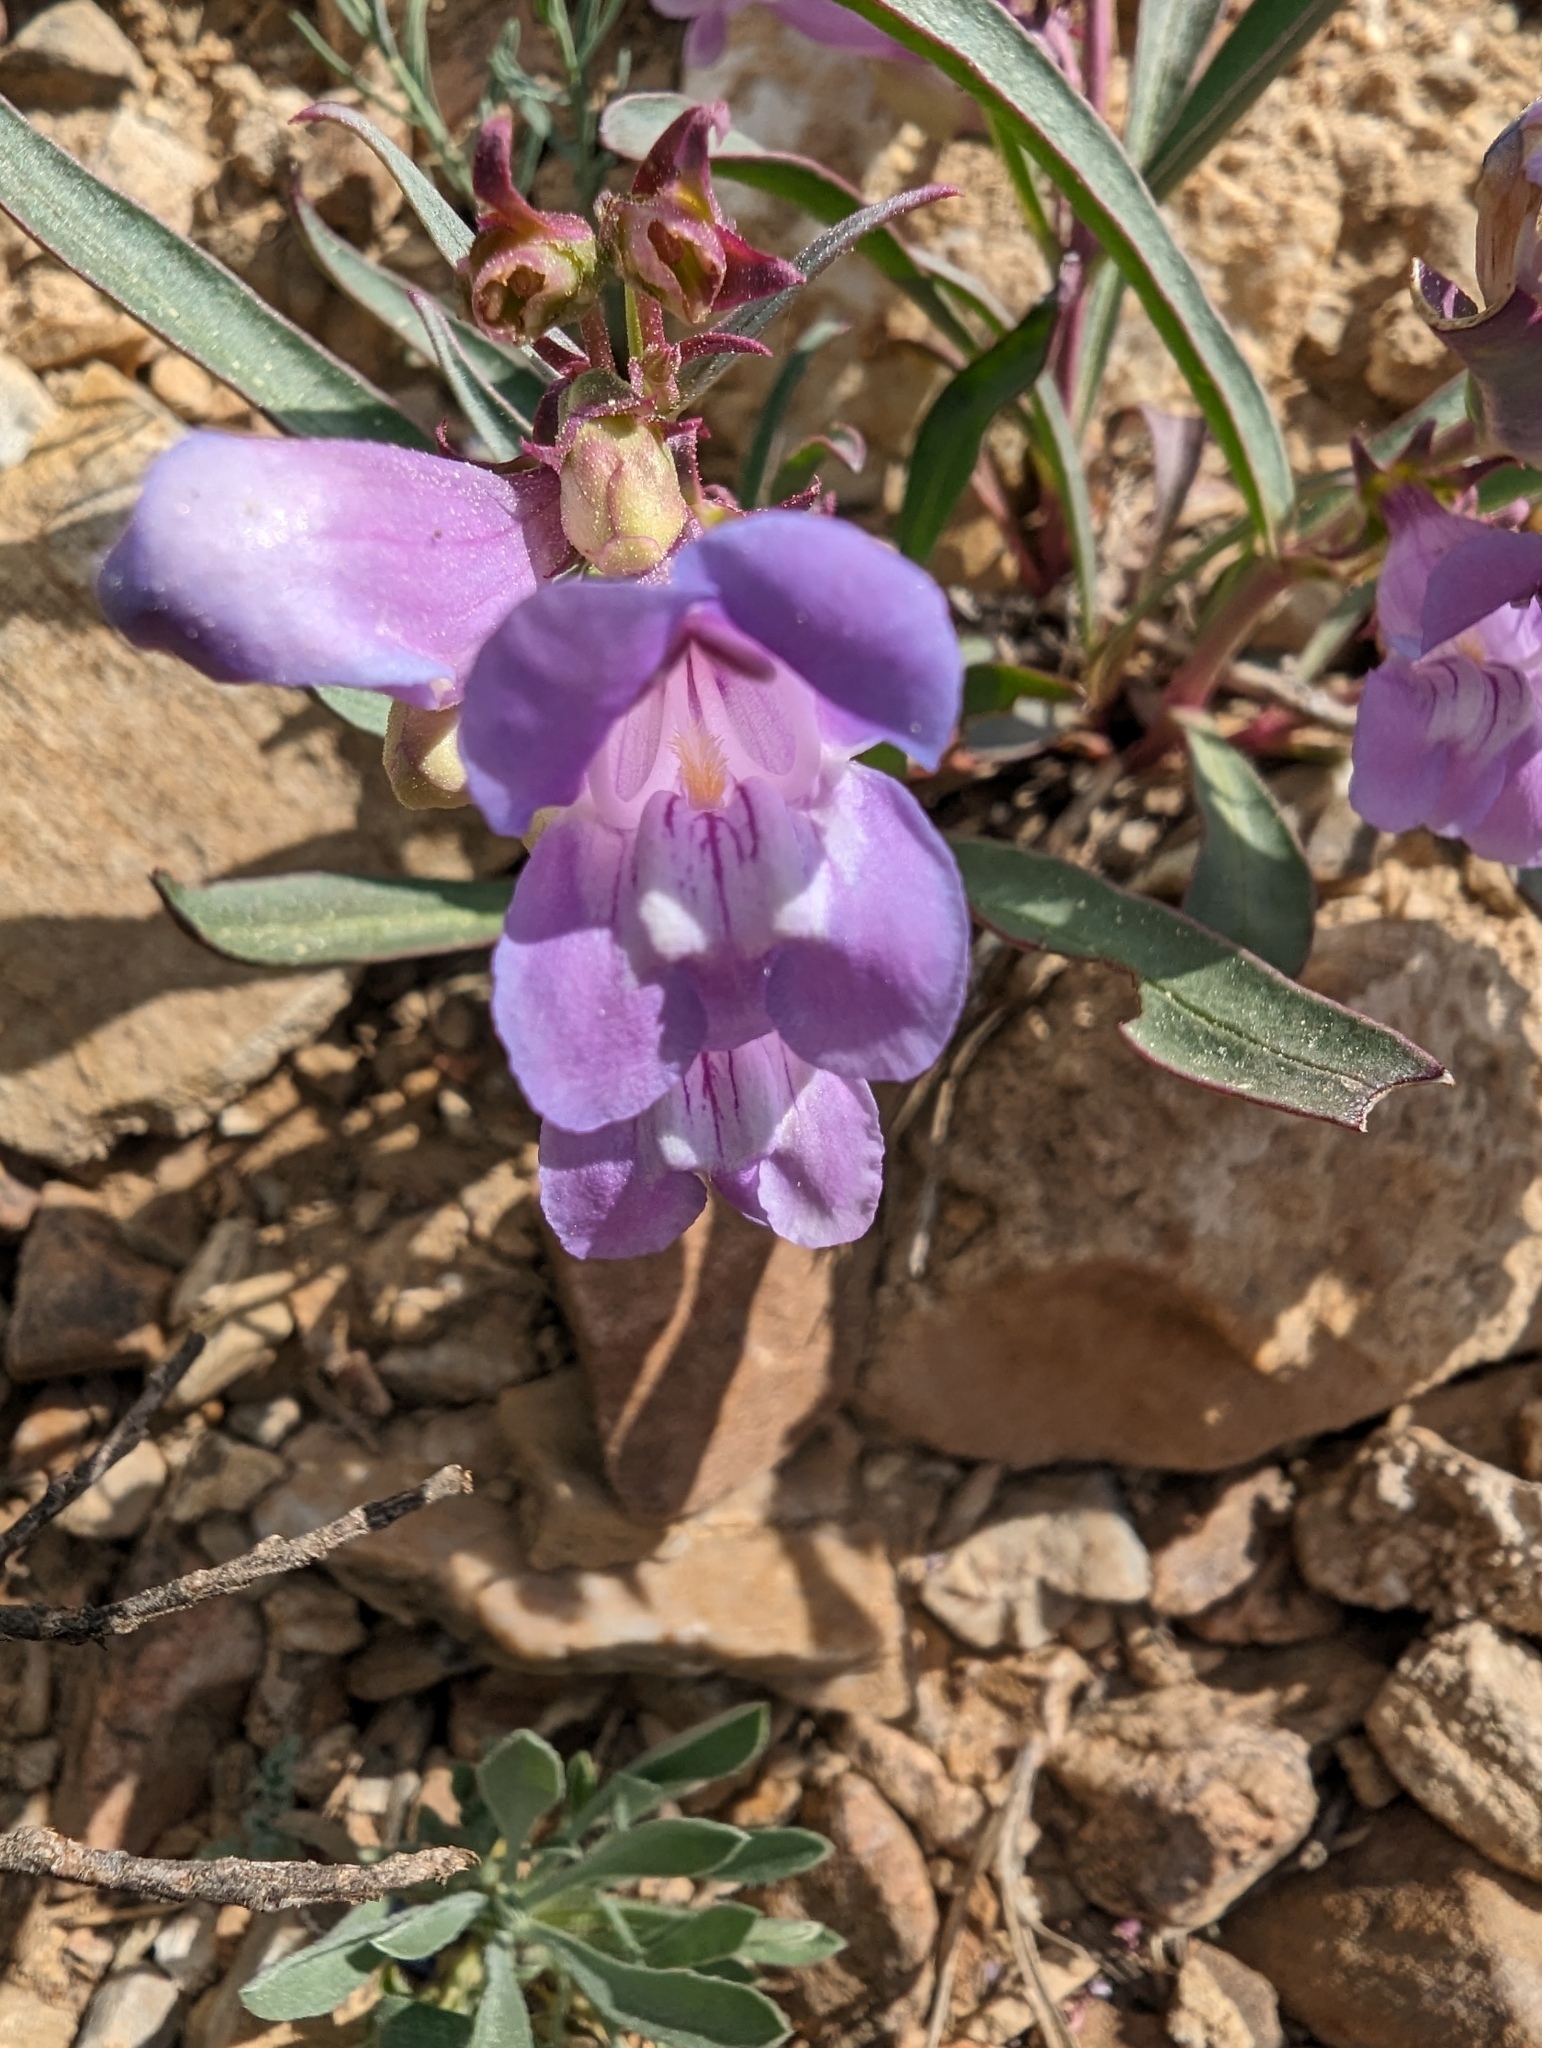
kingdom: Plantae
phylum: Tracheophyta
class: Magnoliopsida
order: Lamiales
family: Plantaginaceae
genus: Penstemon
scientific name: Penstemon speciosus
